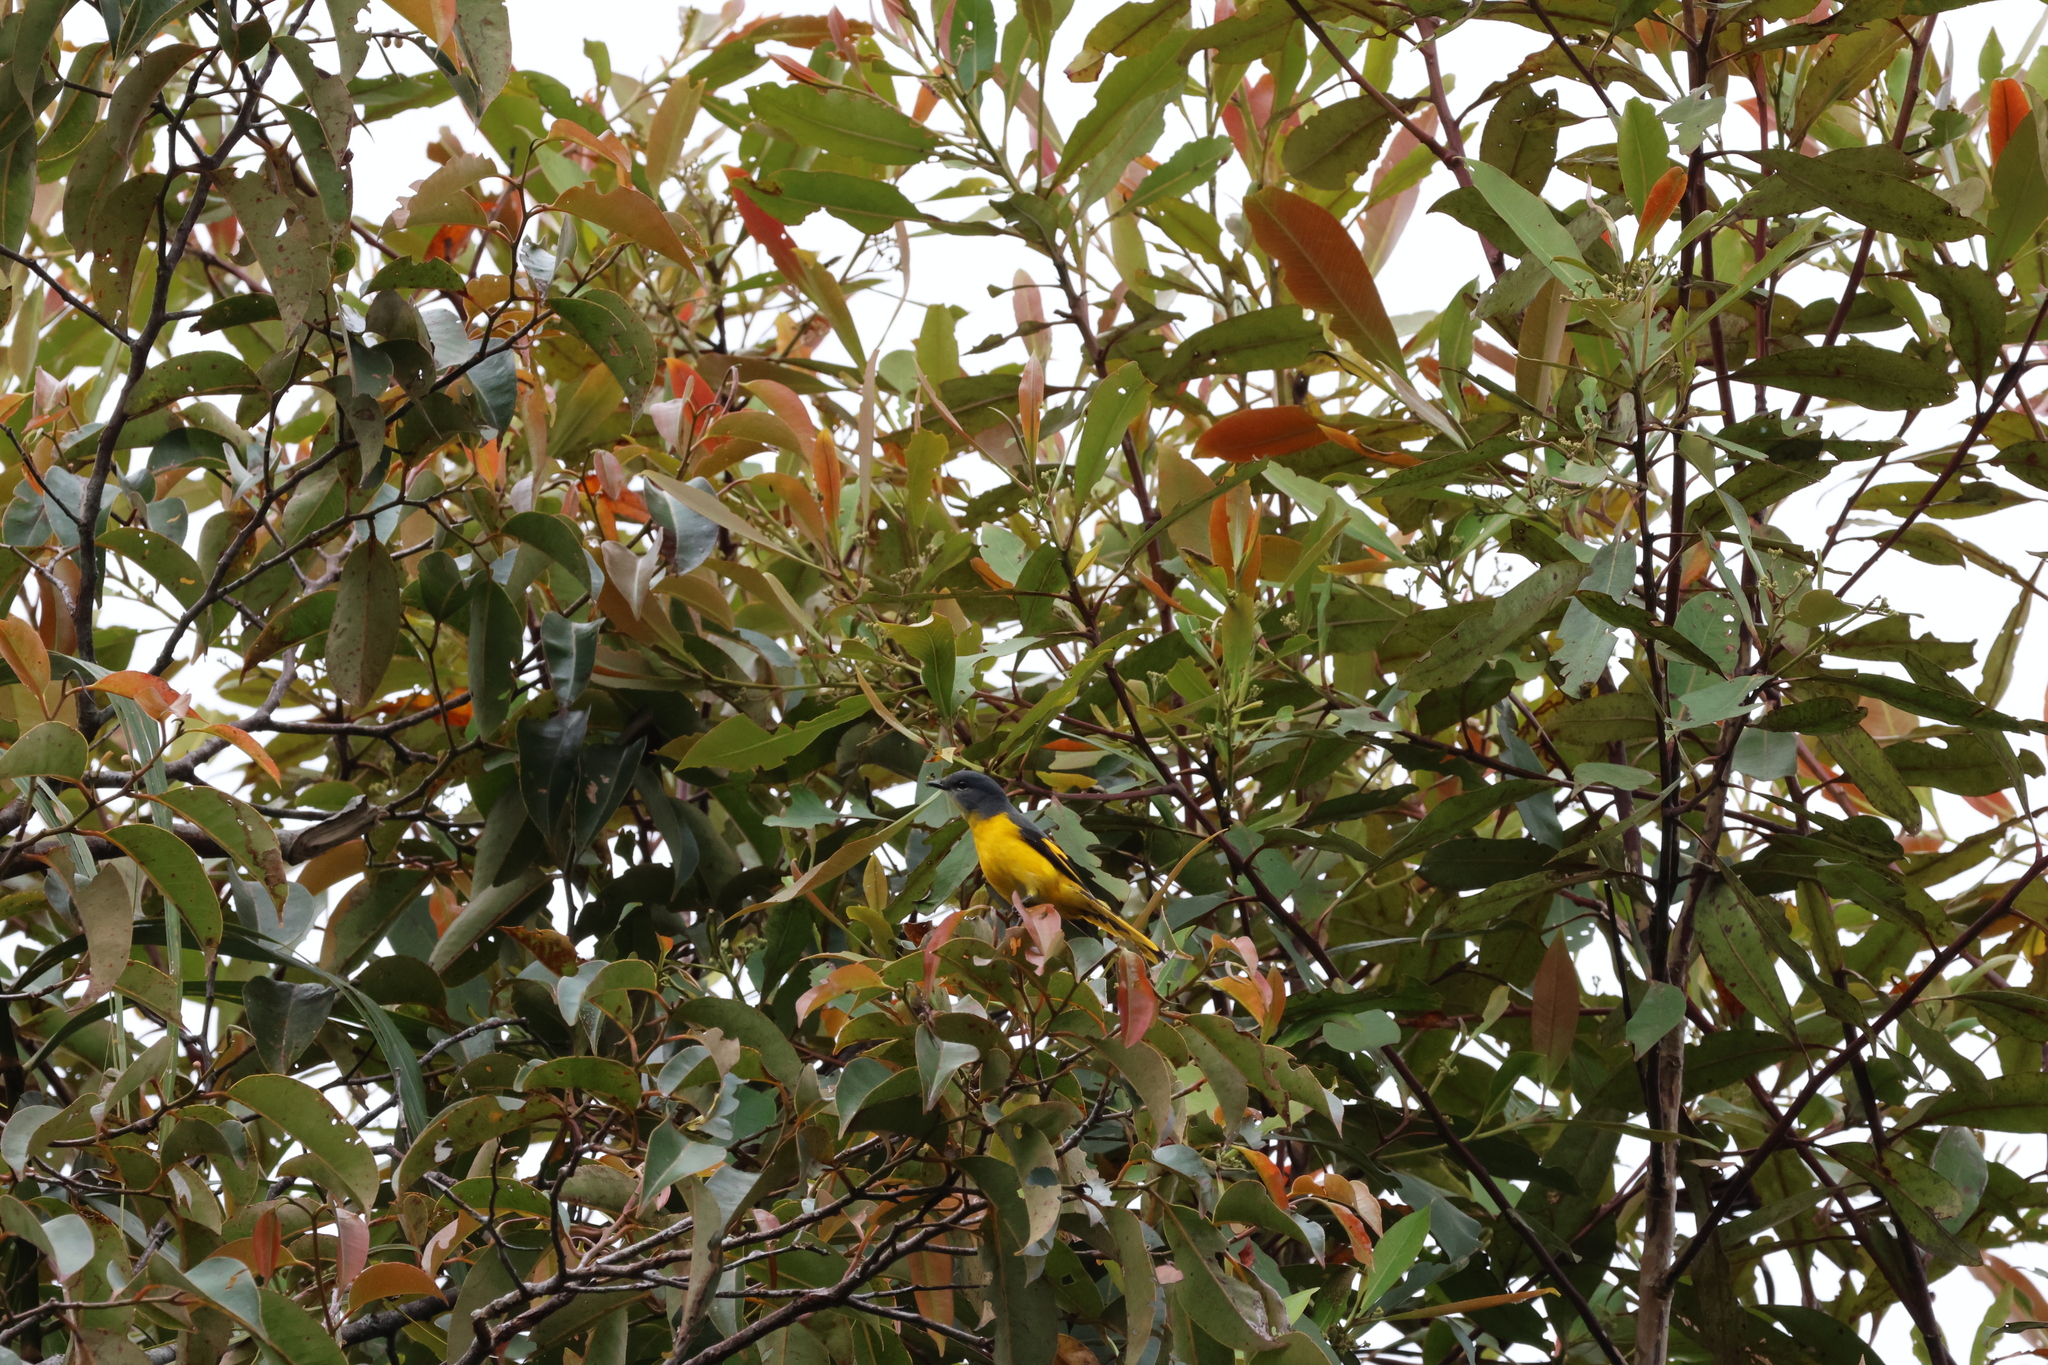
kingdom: Animalia
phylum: Chordata
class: Aves
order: Passeriformes
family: Campephagidae
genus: Pericrocotus
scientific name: Pericrocotus solaris
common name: Grey-chinned minivet
